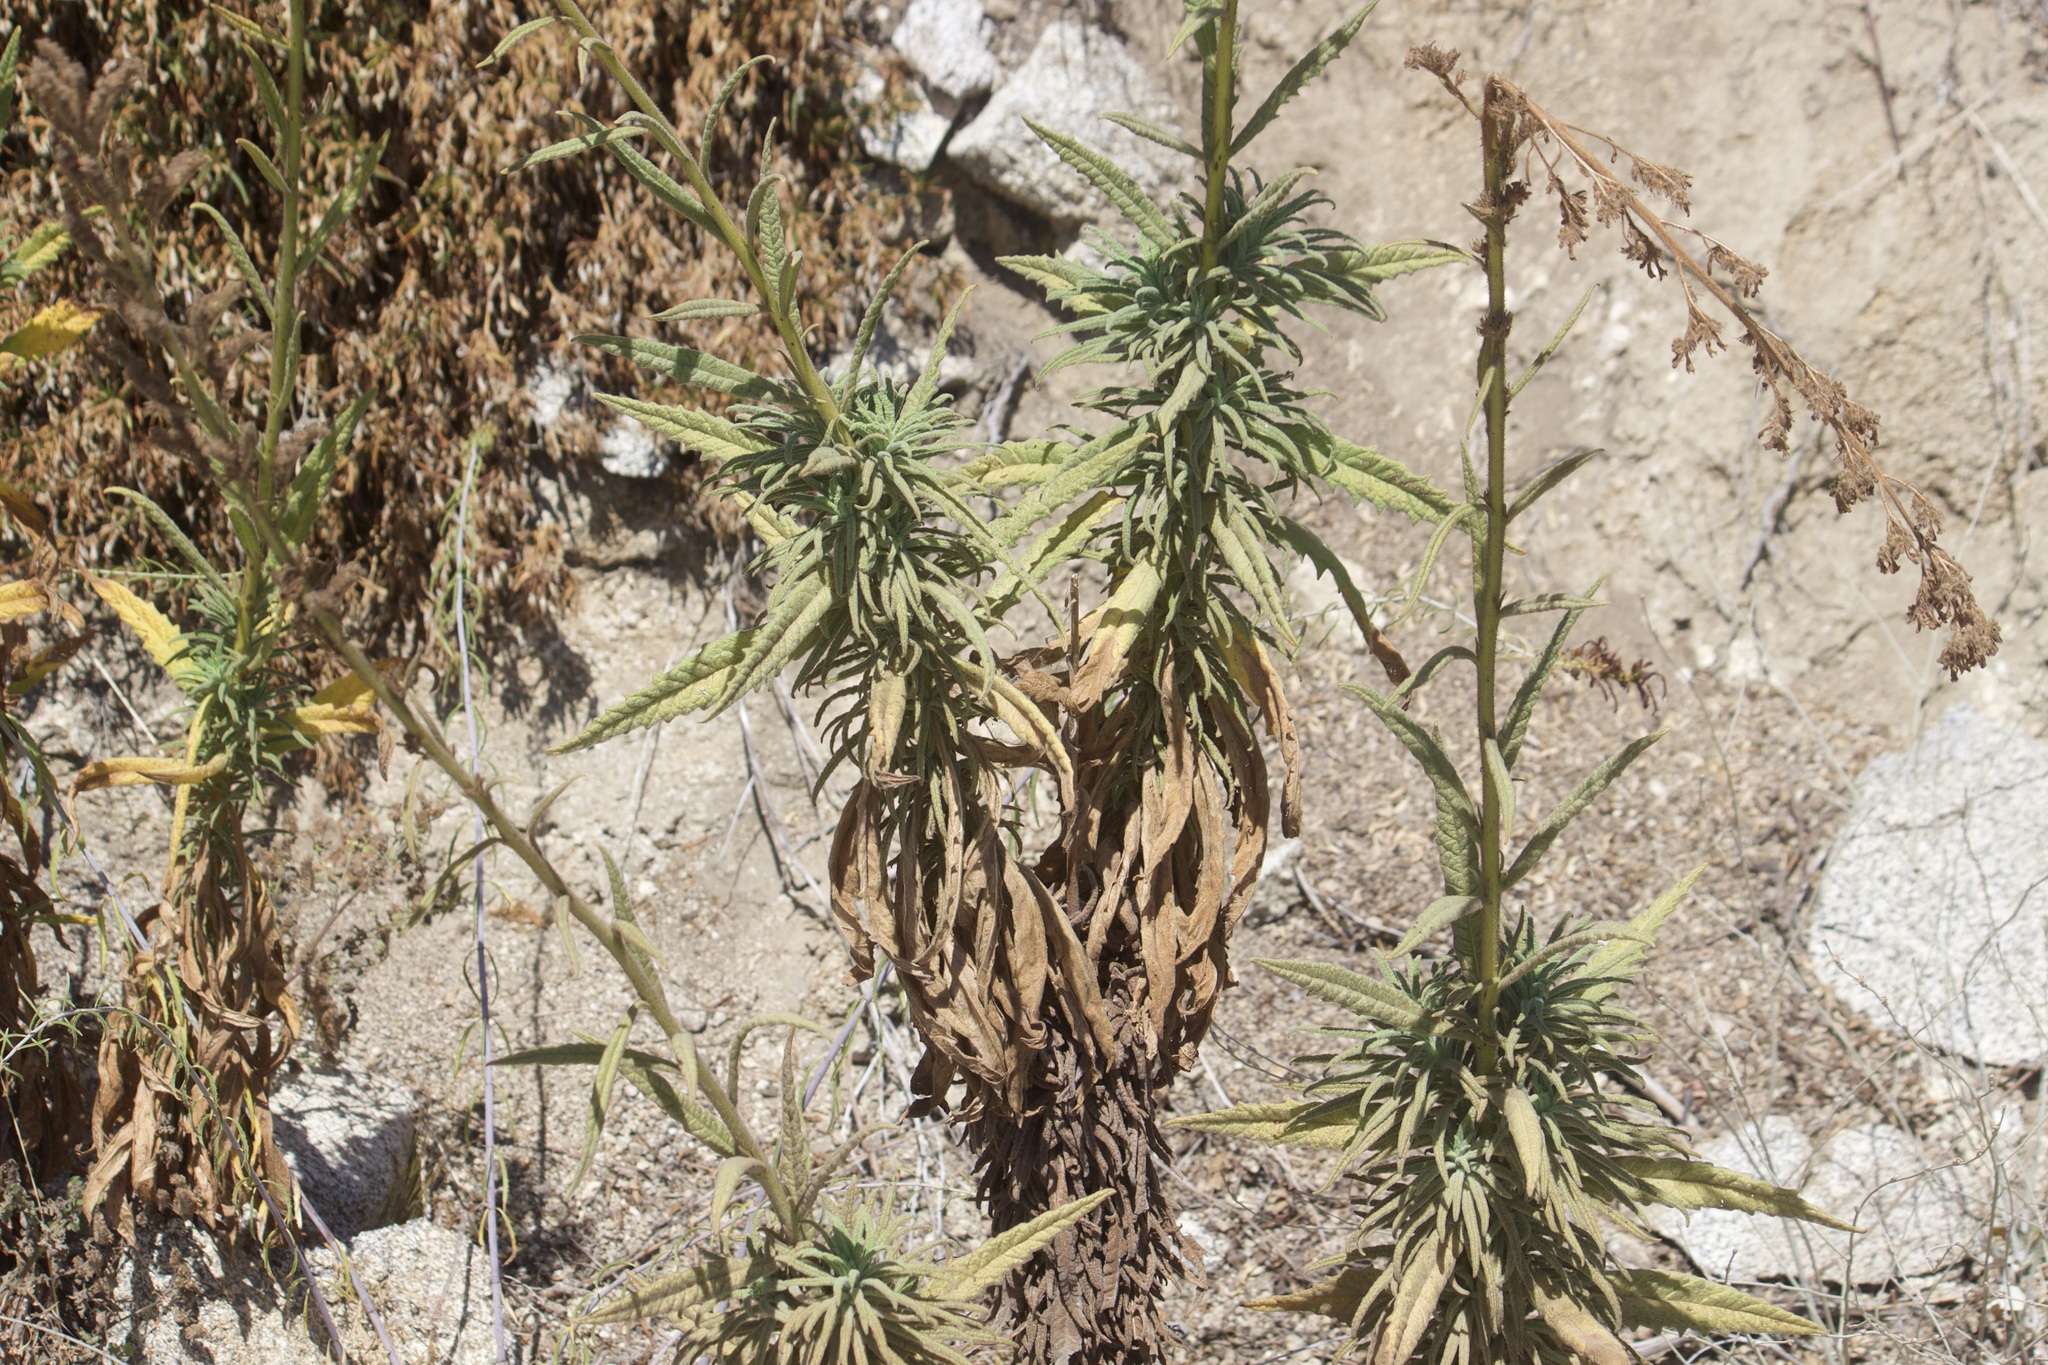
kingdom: Plantae
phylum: Tracheophyta
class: Magnoliopsida
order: Boraginales
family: Namaceae
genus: Turricula
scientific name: Turricula parryi
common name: Poodle-dog-bush
